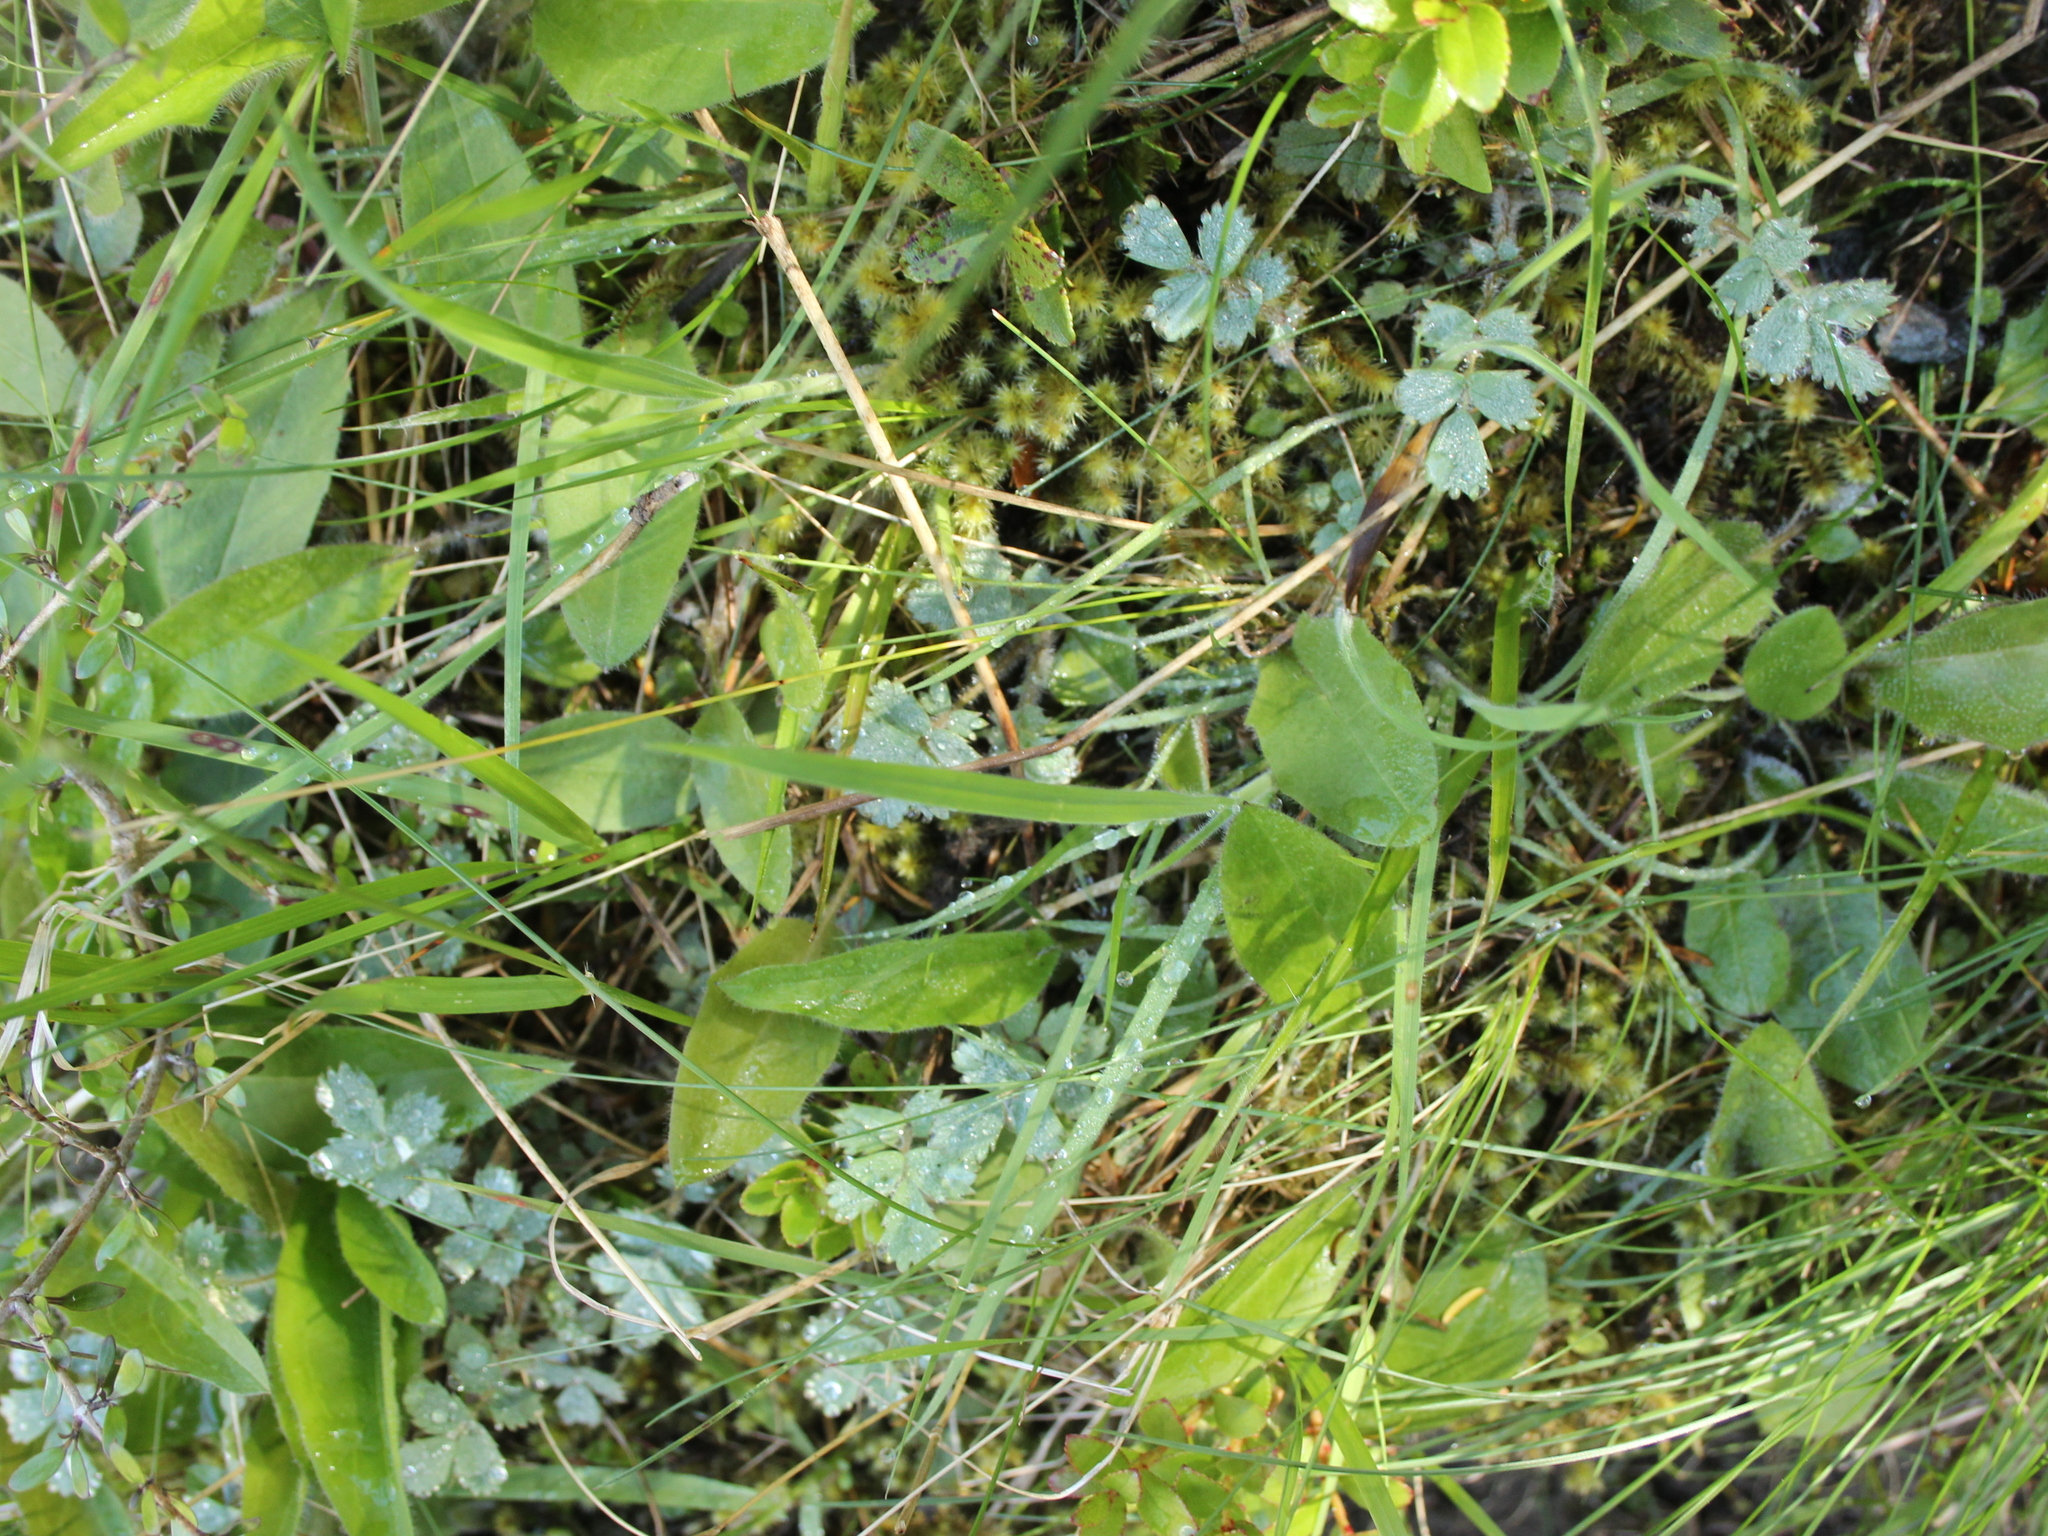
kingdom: Plantae
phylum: Tracheophyta
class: Magnoliopsida
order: Rosales
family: Rosaceae
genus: Acaena
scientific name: Acaena caesiiglauca
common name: Glaucous pirri-pirri-bur
